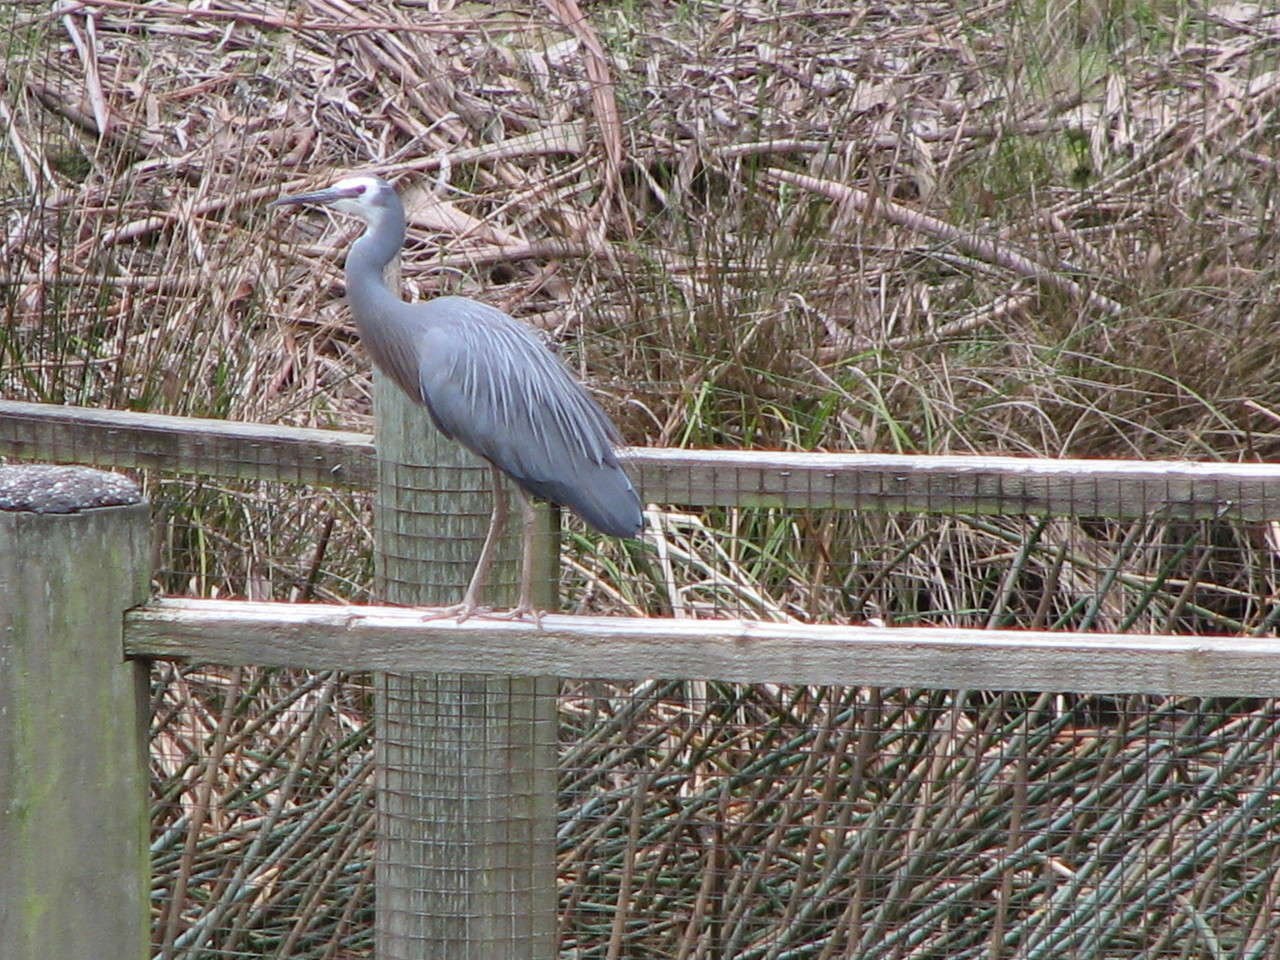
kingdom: Animalia
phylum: Chordata
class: Aves
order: Pelecaniformes
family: Ardeidae
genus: Egretta
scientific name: Egretta novaehollandiae
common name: White-faced heron
